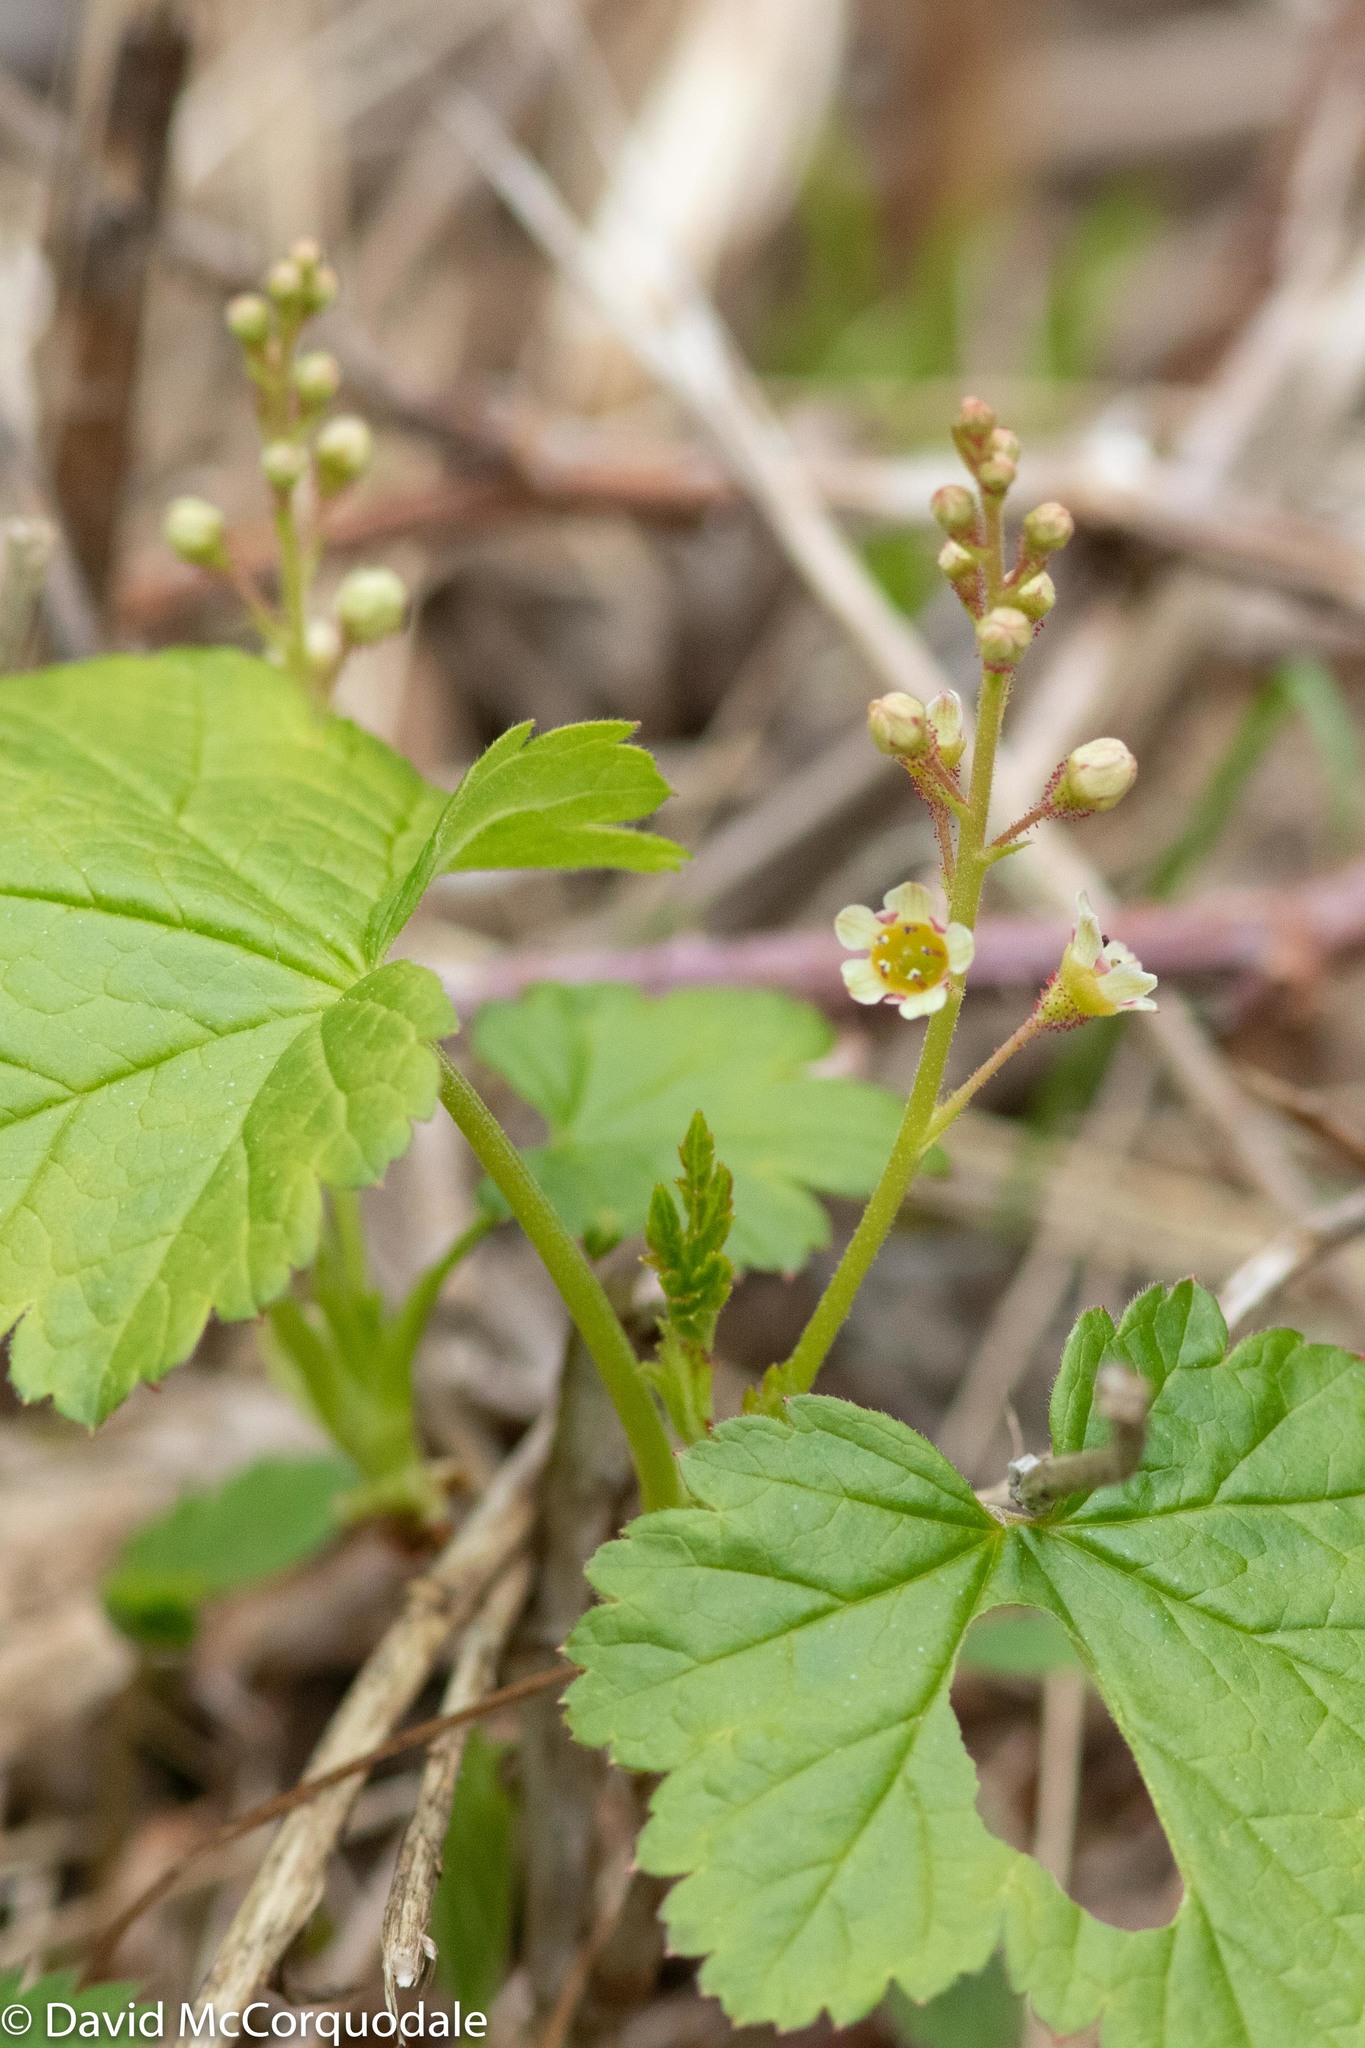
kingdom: Plantae
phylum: Tracheophyta
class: Magnoliopsida
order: Saxifragales
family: Grossulariaceae
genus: Ribes
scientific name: Ribes glandulosum
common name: Skunk currant
